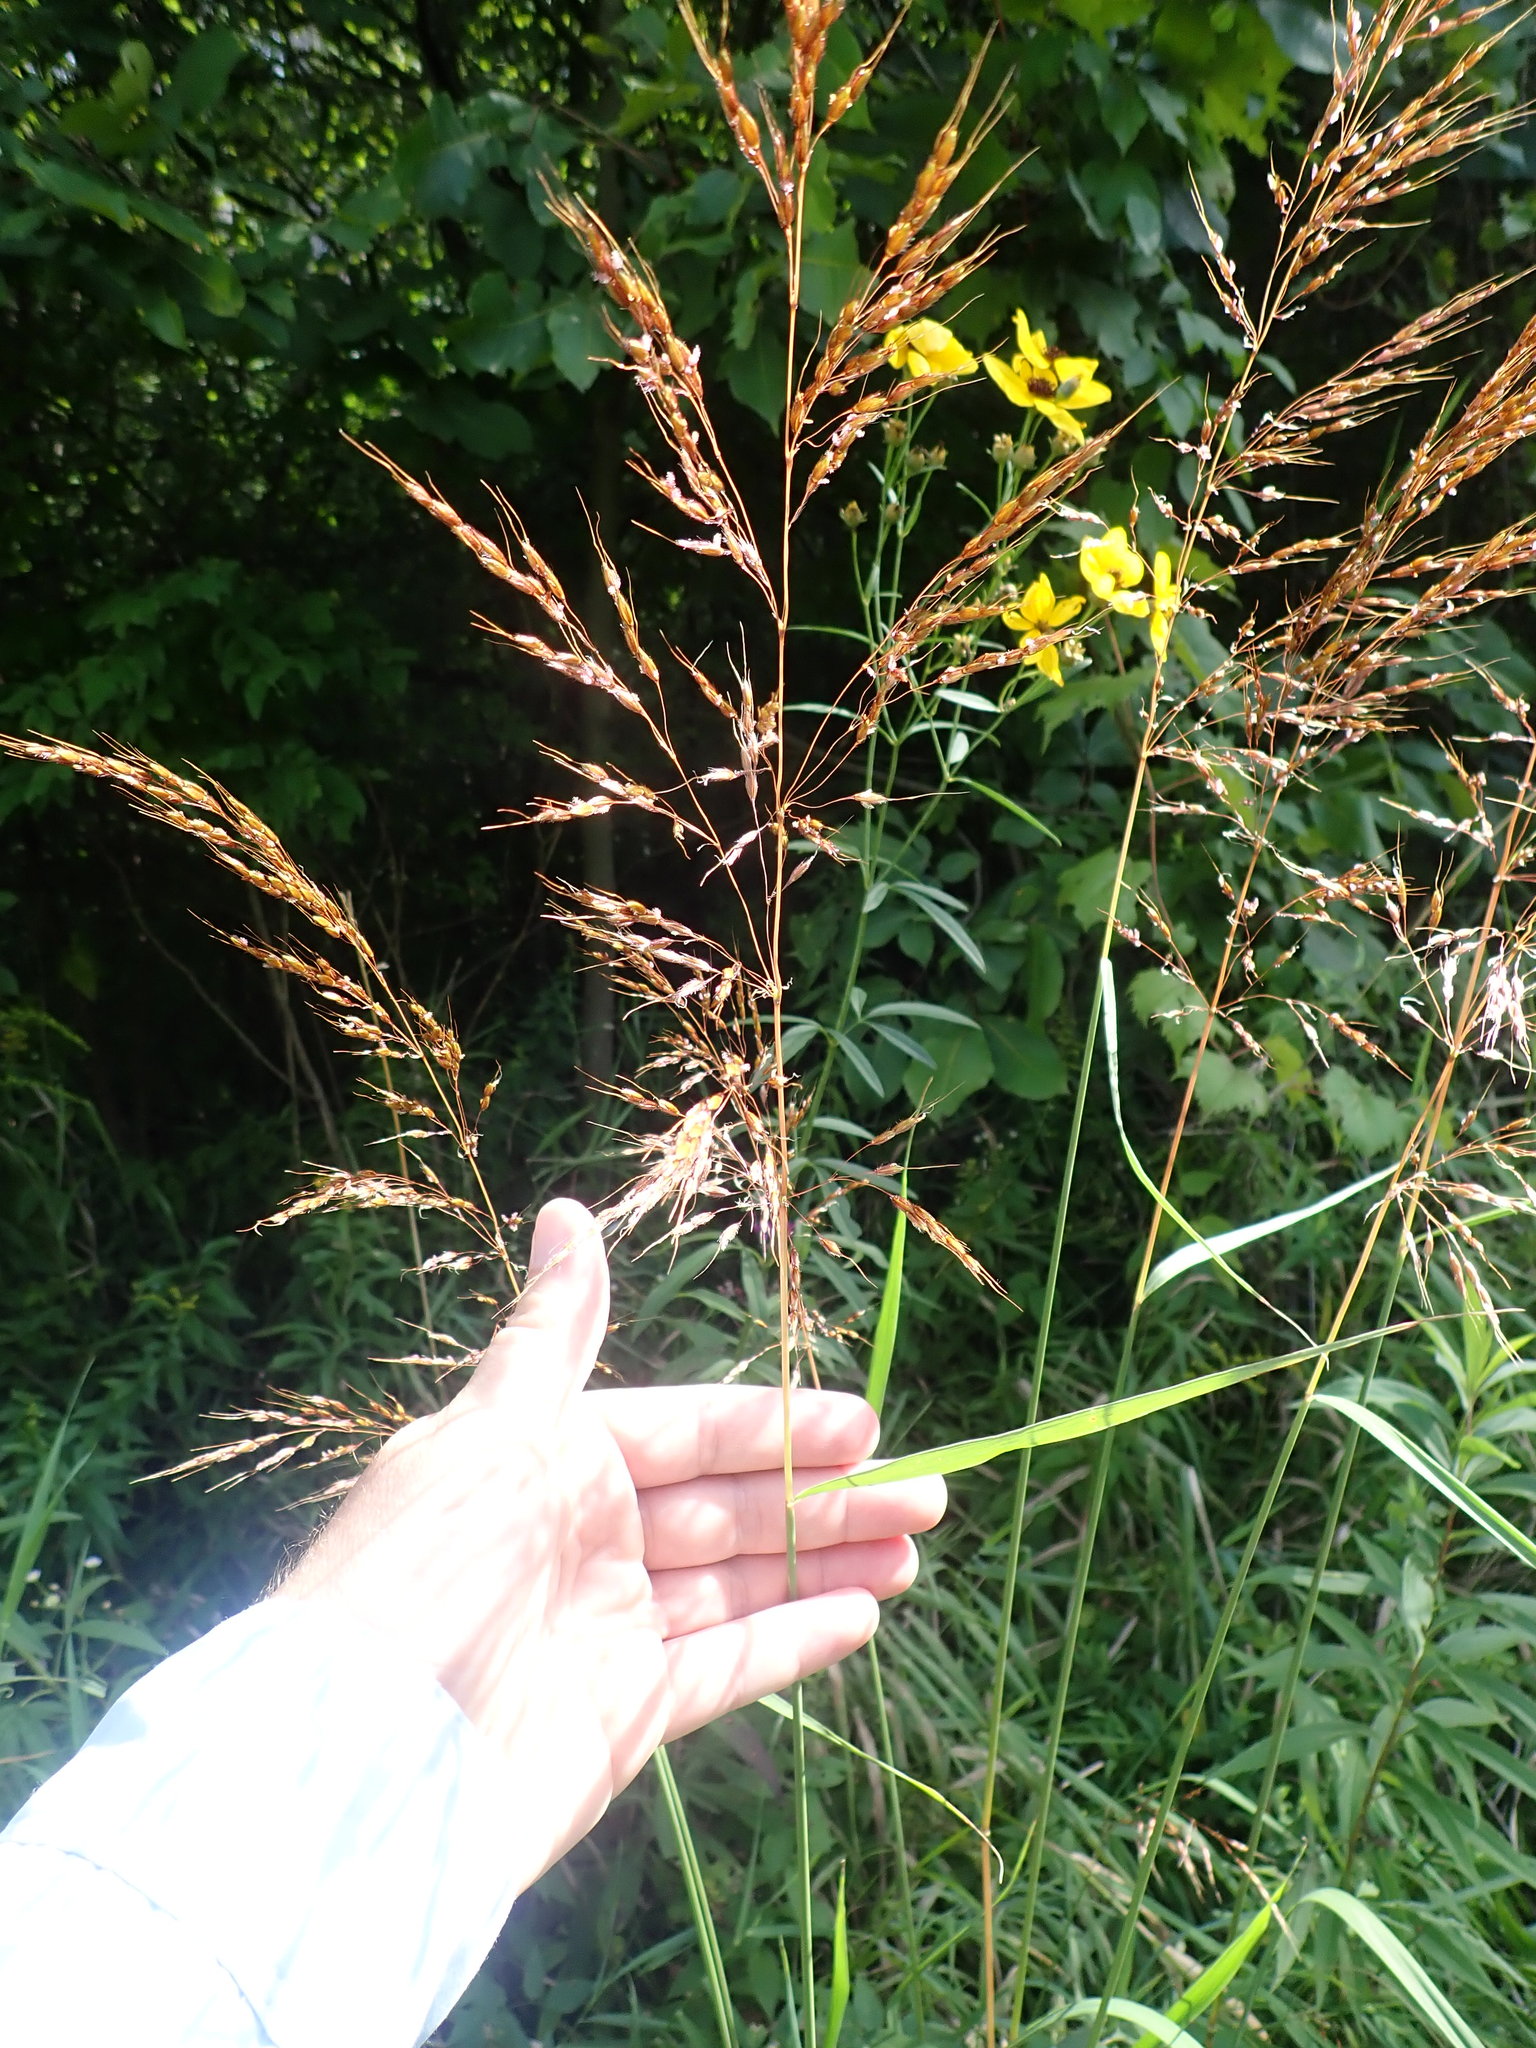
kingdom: Plantae
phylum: Tracheophyta
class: Liliopsida
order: Poales
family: Poaceae
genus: Sorghastrum
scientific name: Sorghastrum nutans
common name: Indian grass
